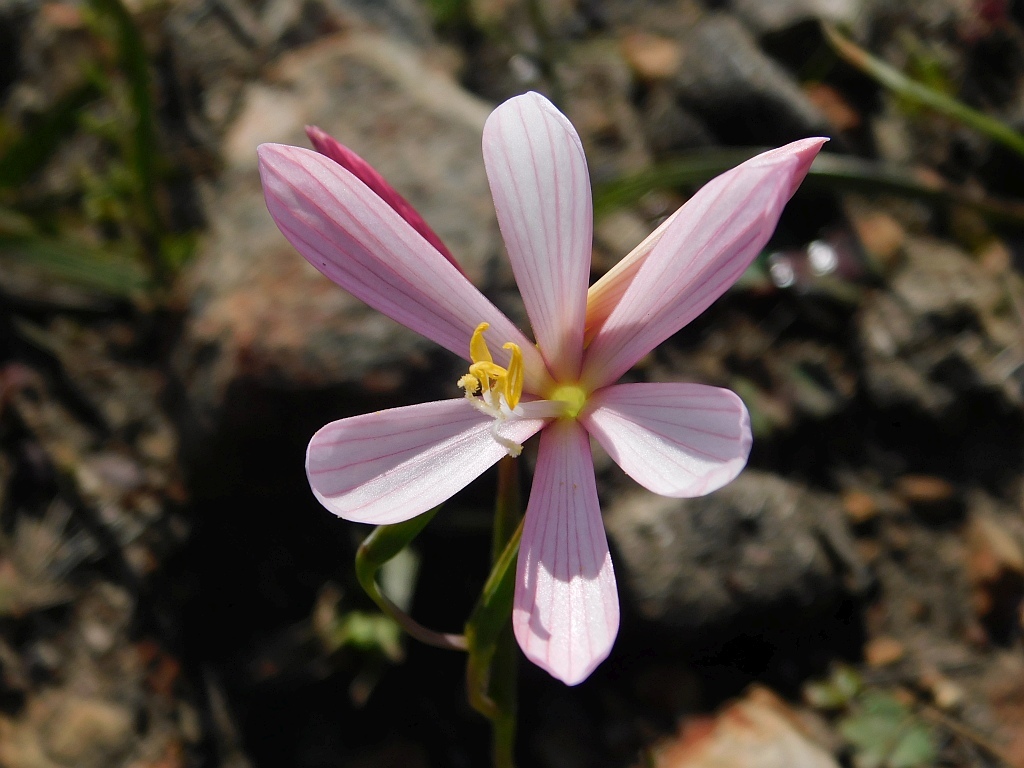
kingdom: Plantae
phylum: Tracheophyta
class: Liliopsida
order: Asparagales
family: Iridaceae
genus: Geissorhiza
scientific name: Geissorhiza schinzii
